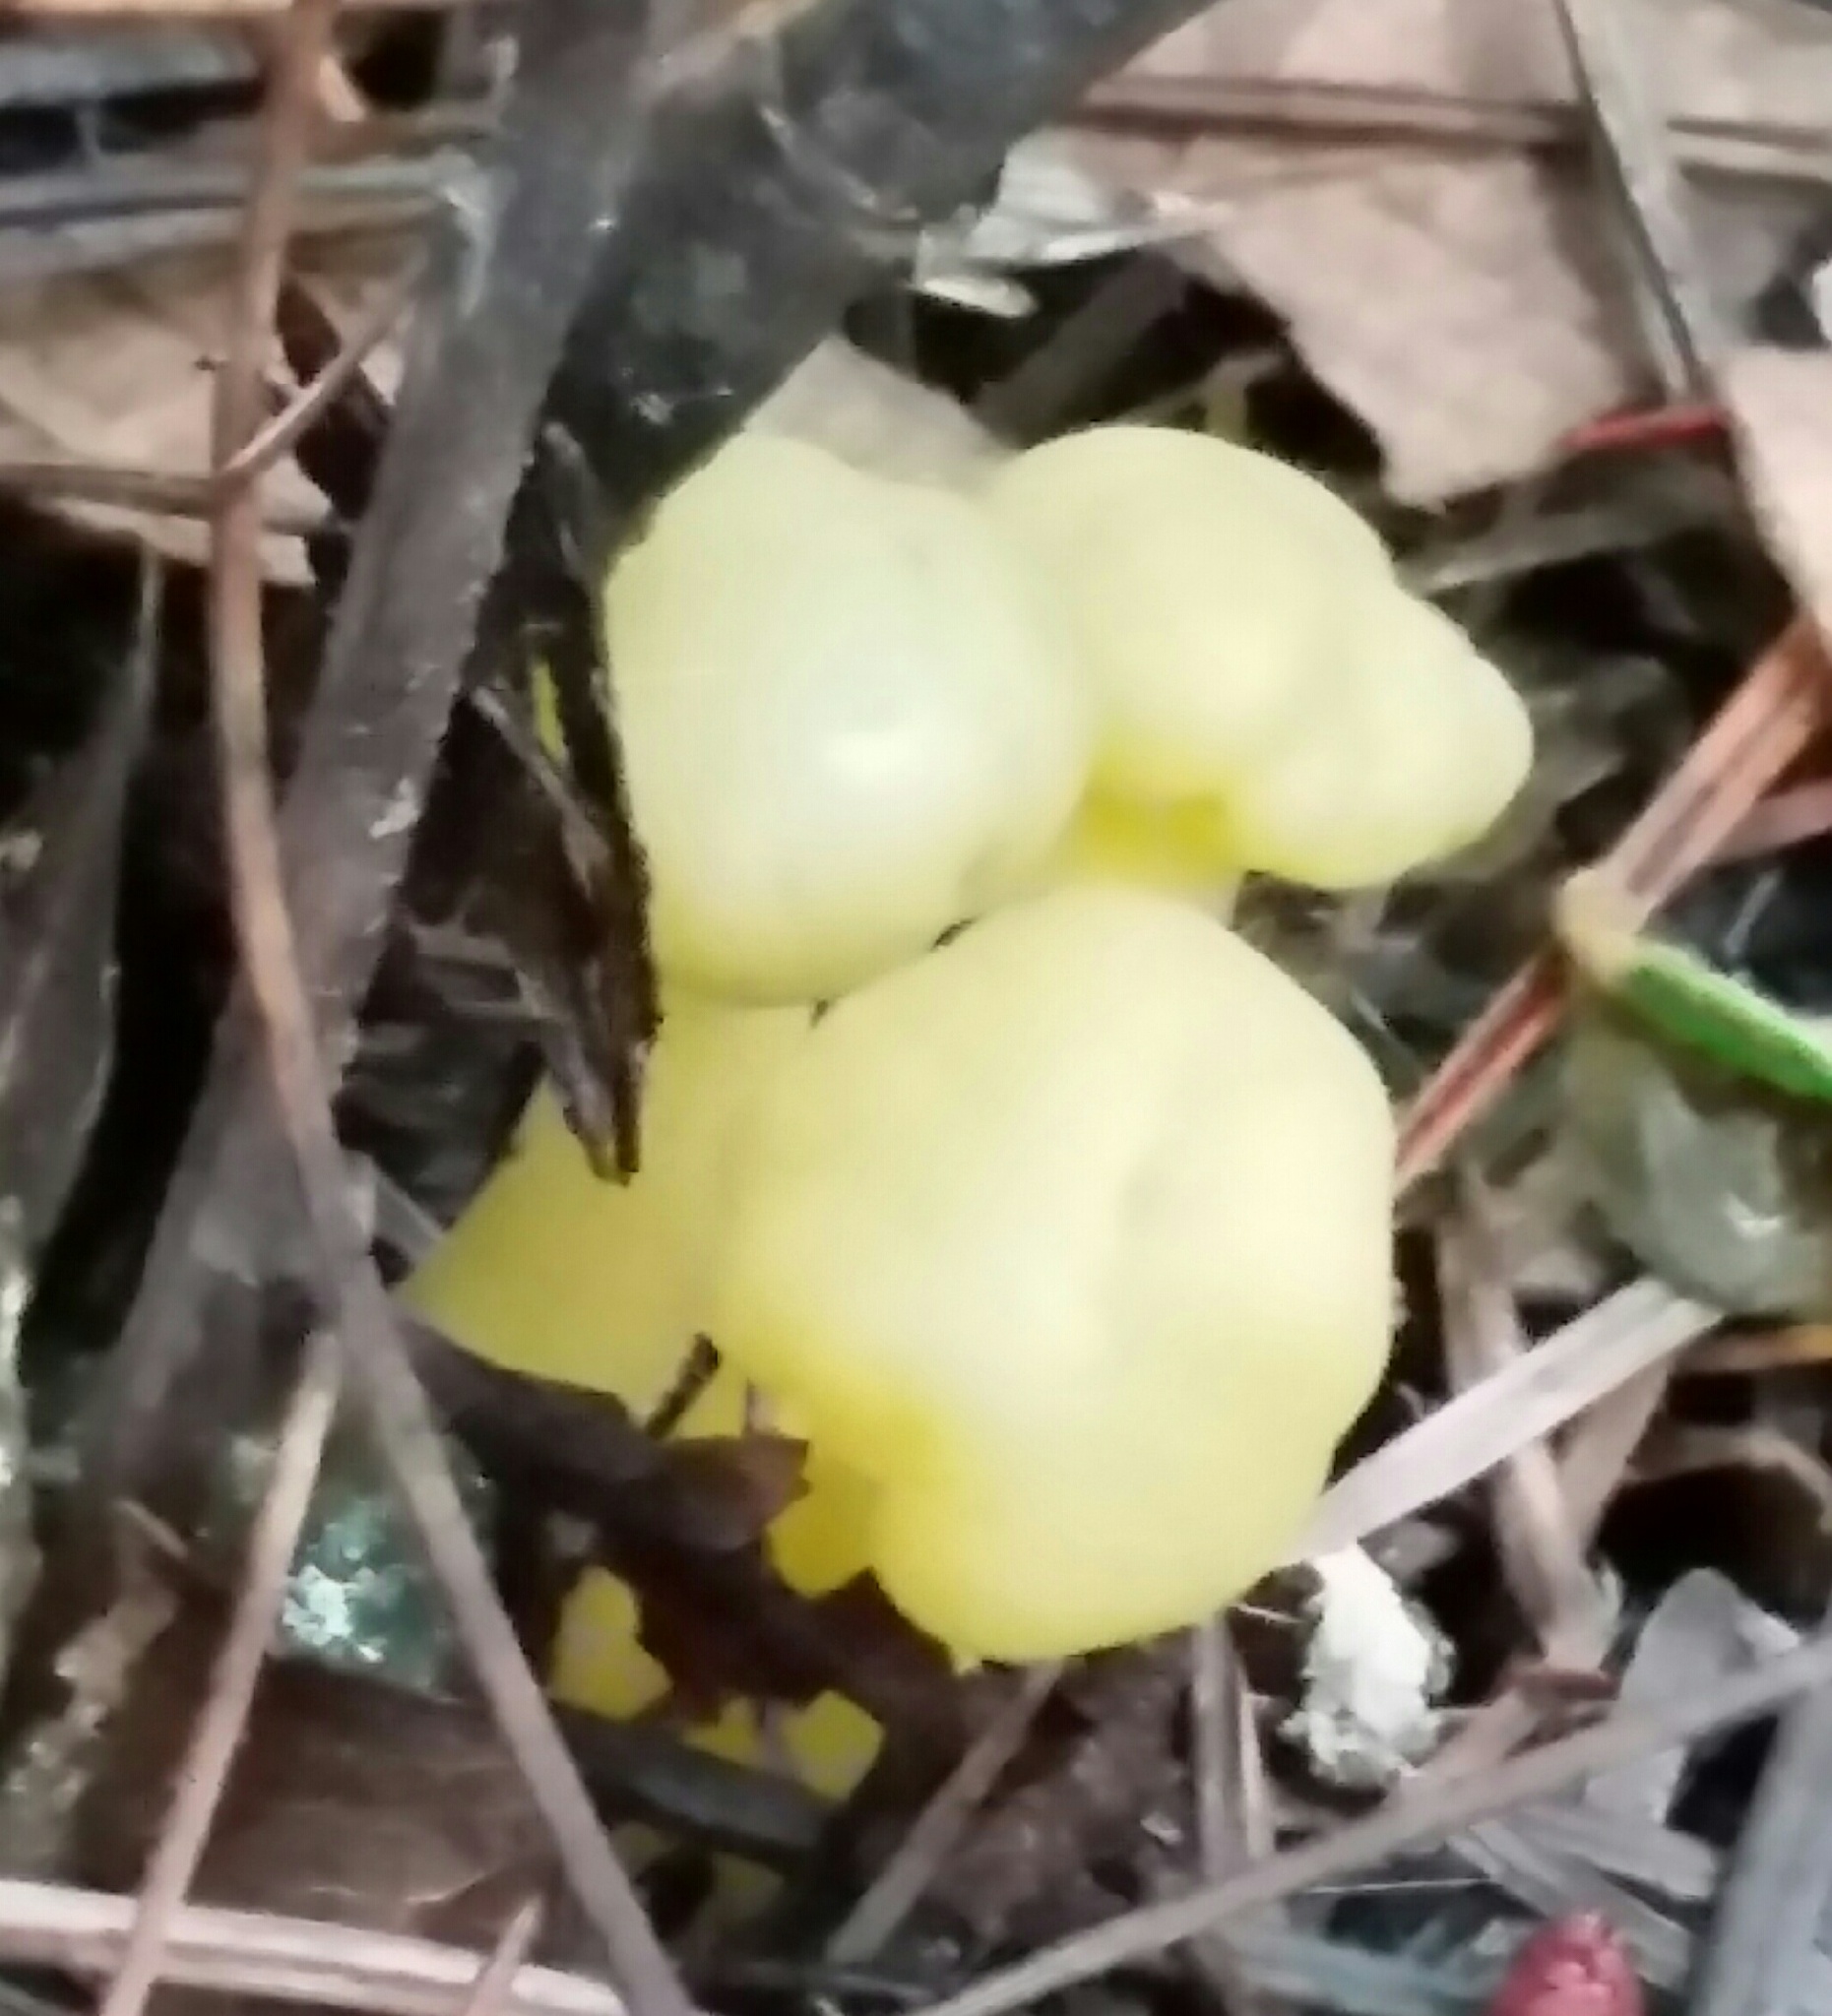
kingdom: Fungi
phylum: Ascomycota
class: Leotiomycetes
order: Leotiales
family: Leotiaceae
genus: Leotia
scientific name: Leotia lubrica
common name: Jellybaby
